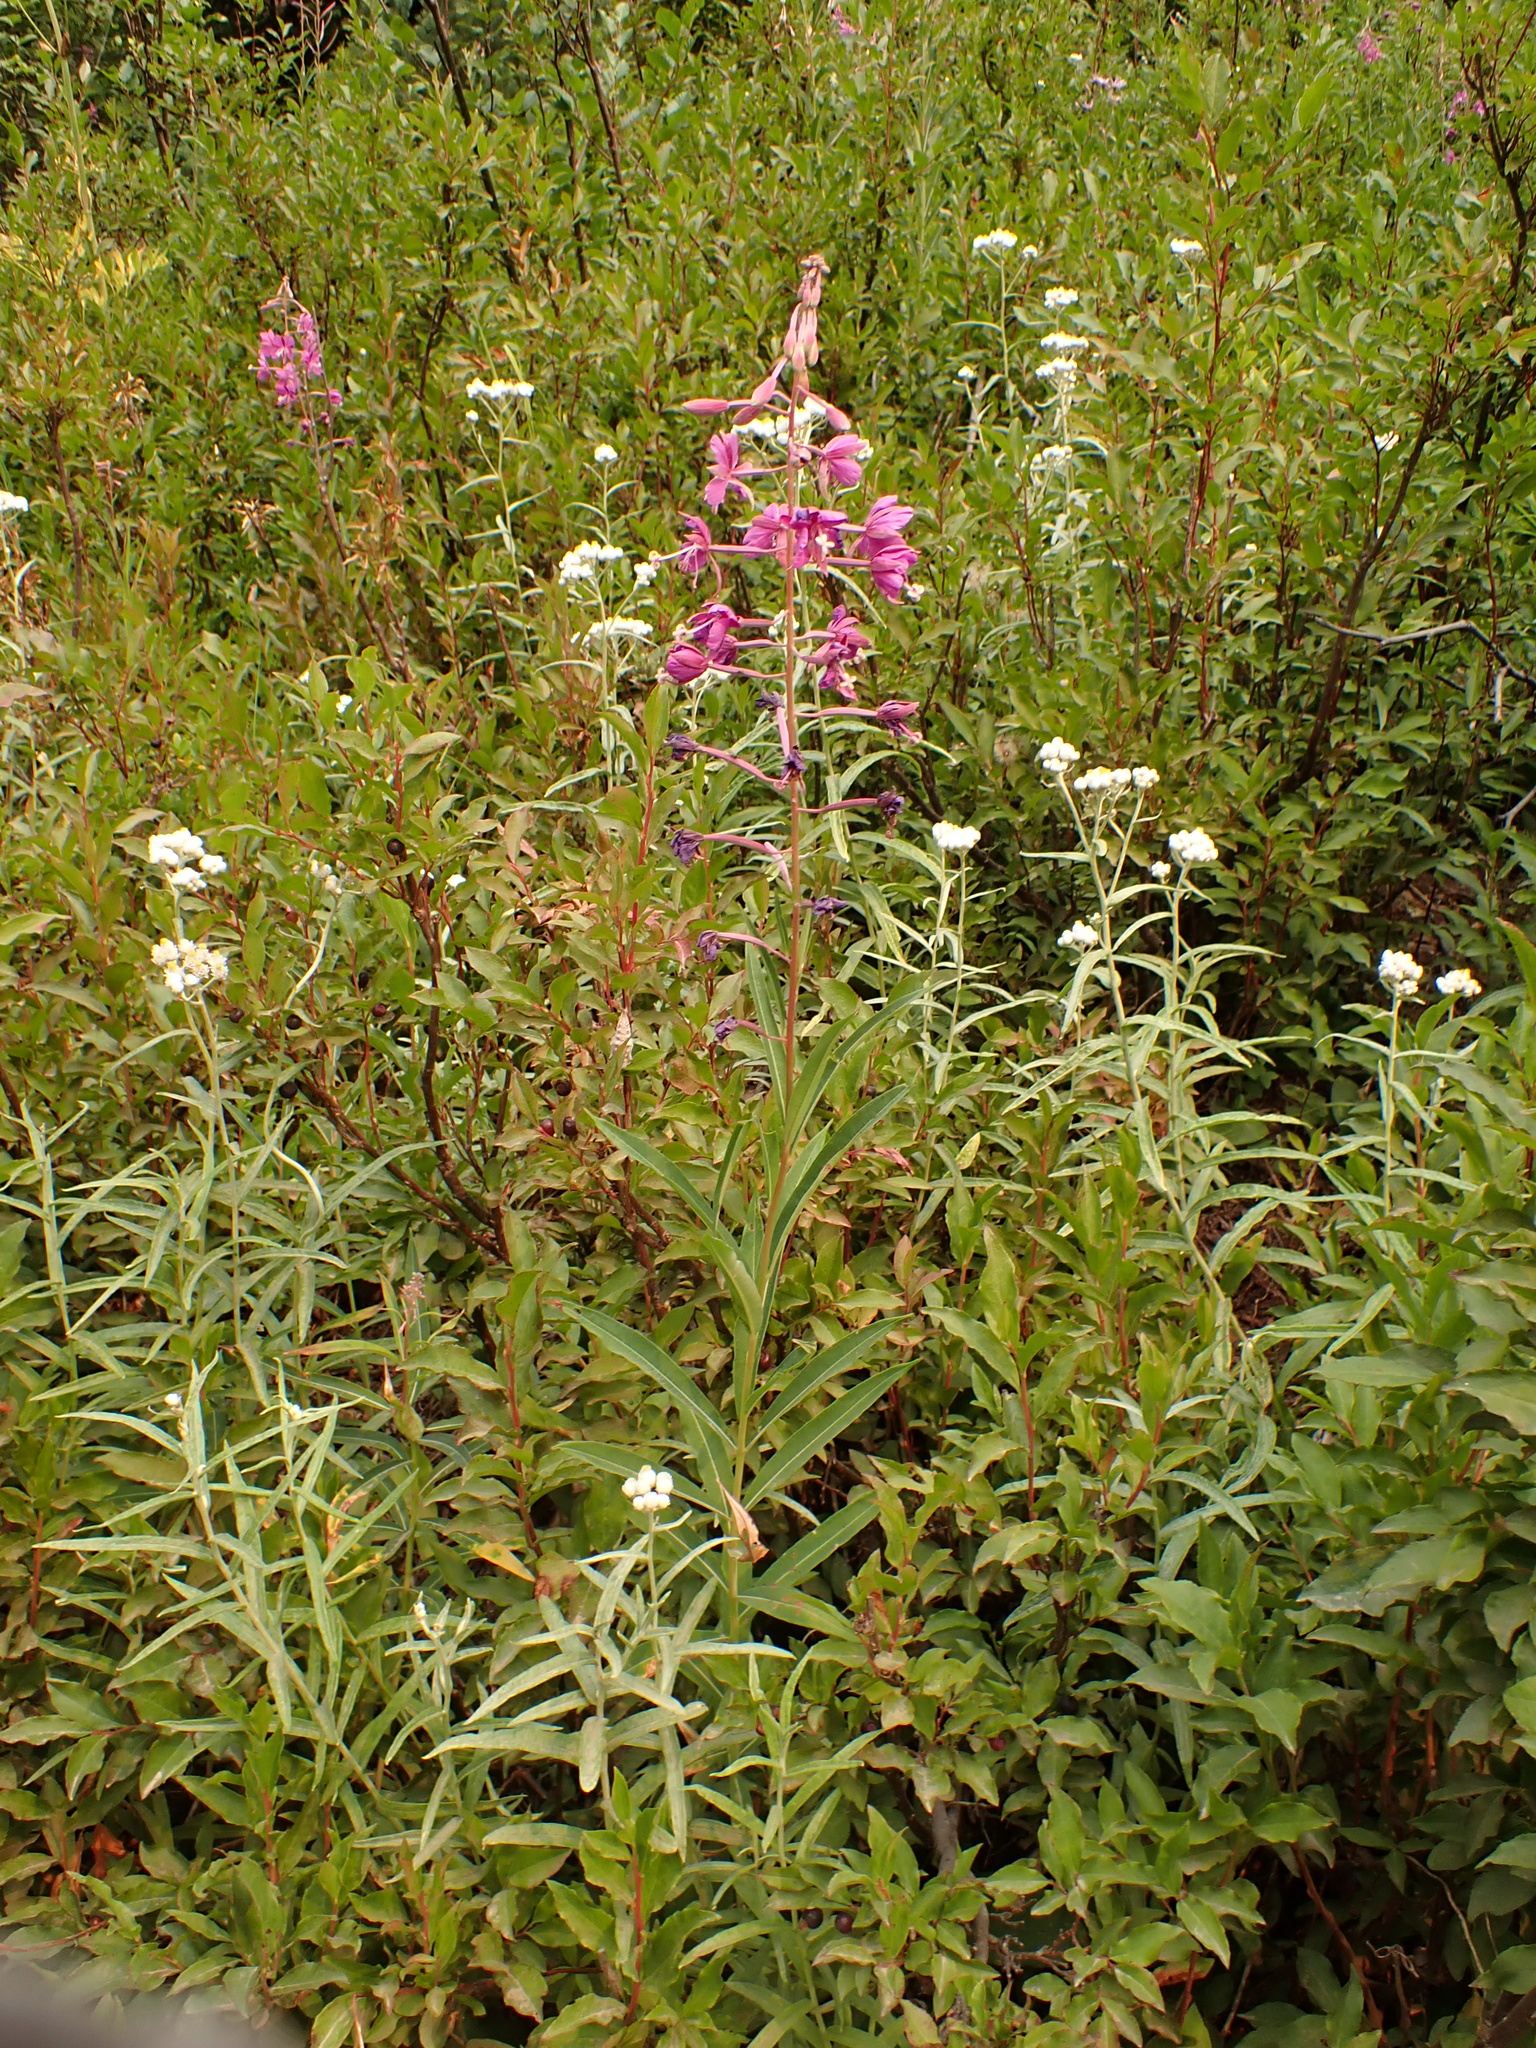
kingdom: Plantae
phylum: Tracheophyta
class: Magnoliopsida
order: Myrtales
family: Onagraceae
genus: Chamaenerion
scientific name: Chamaenerion angustifolium
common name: Fireweed
